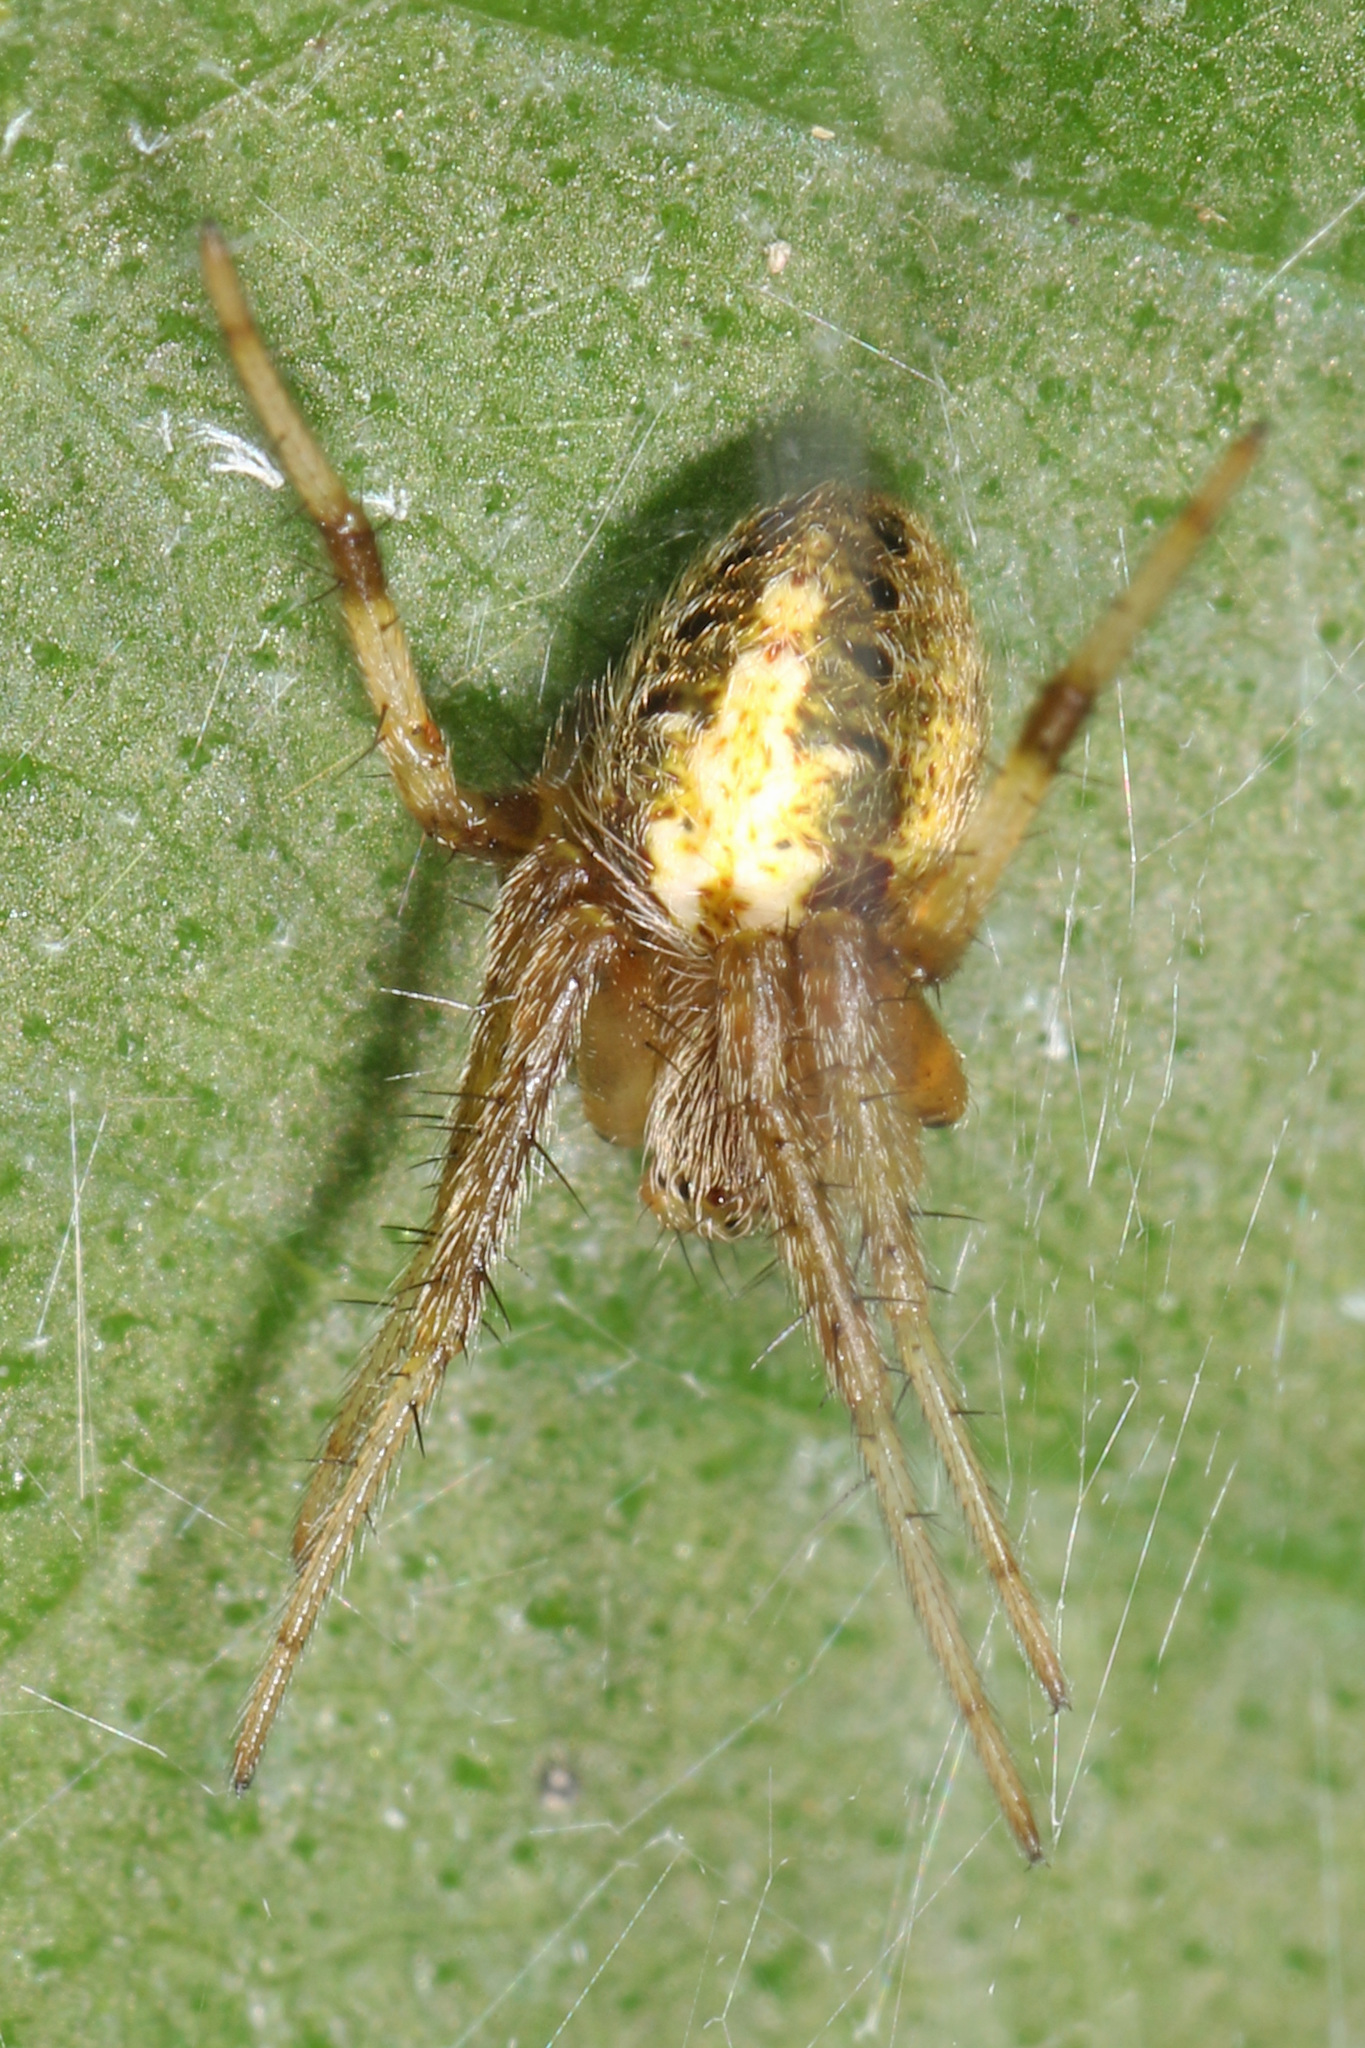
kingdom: Animalia
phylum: Arthropoda
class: Arachnida
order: Araneae
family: Araneidae
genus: Neoscona
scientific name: Neoscona arabesca
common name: Orb weavers
